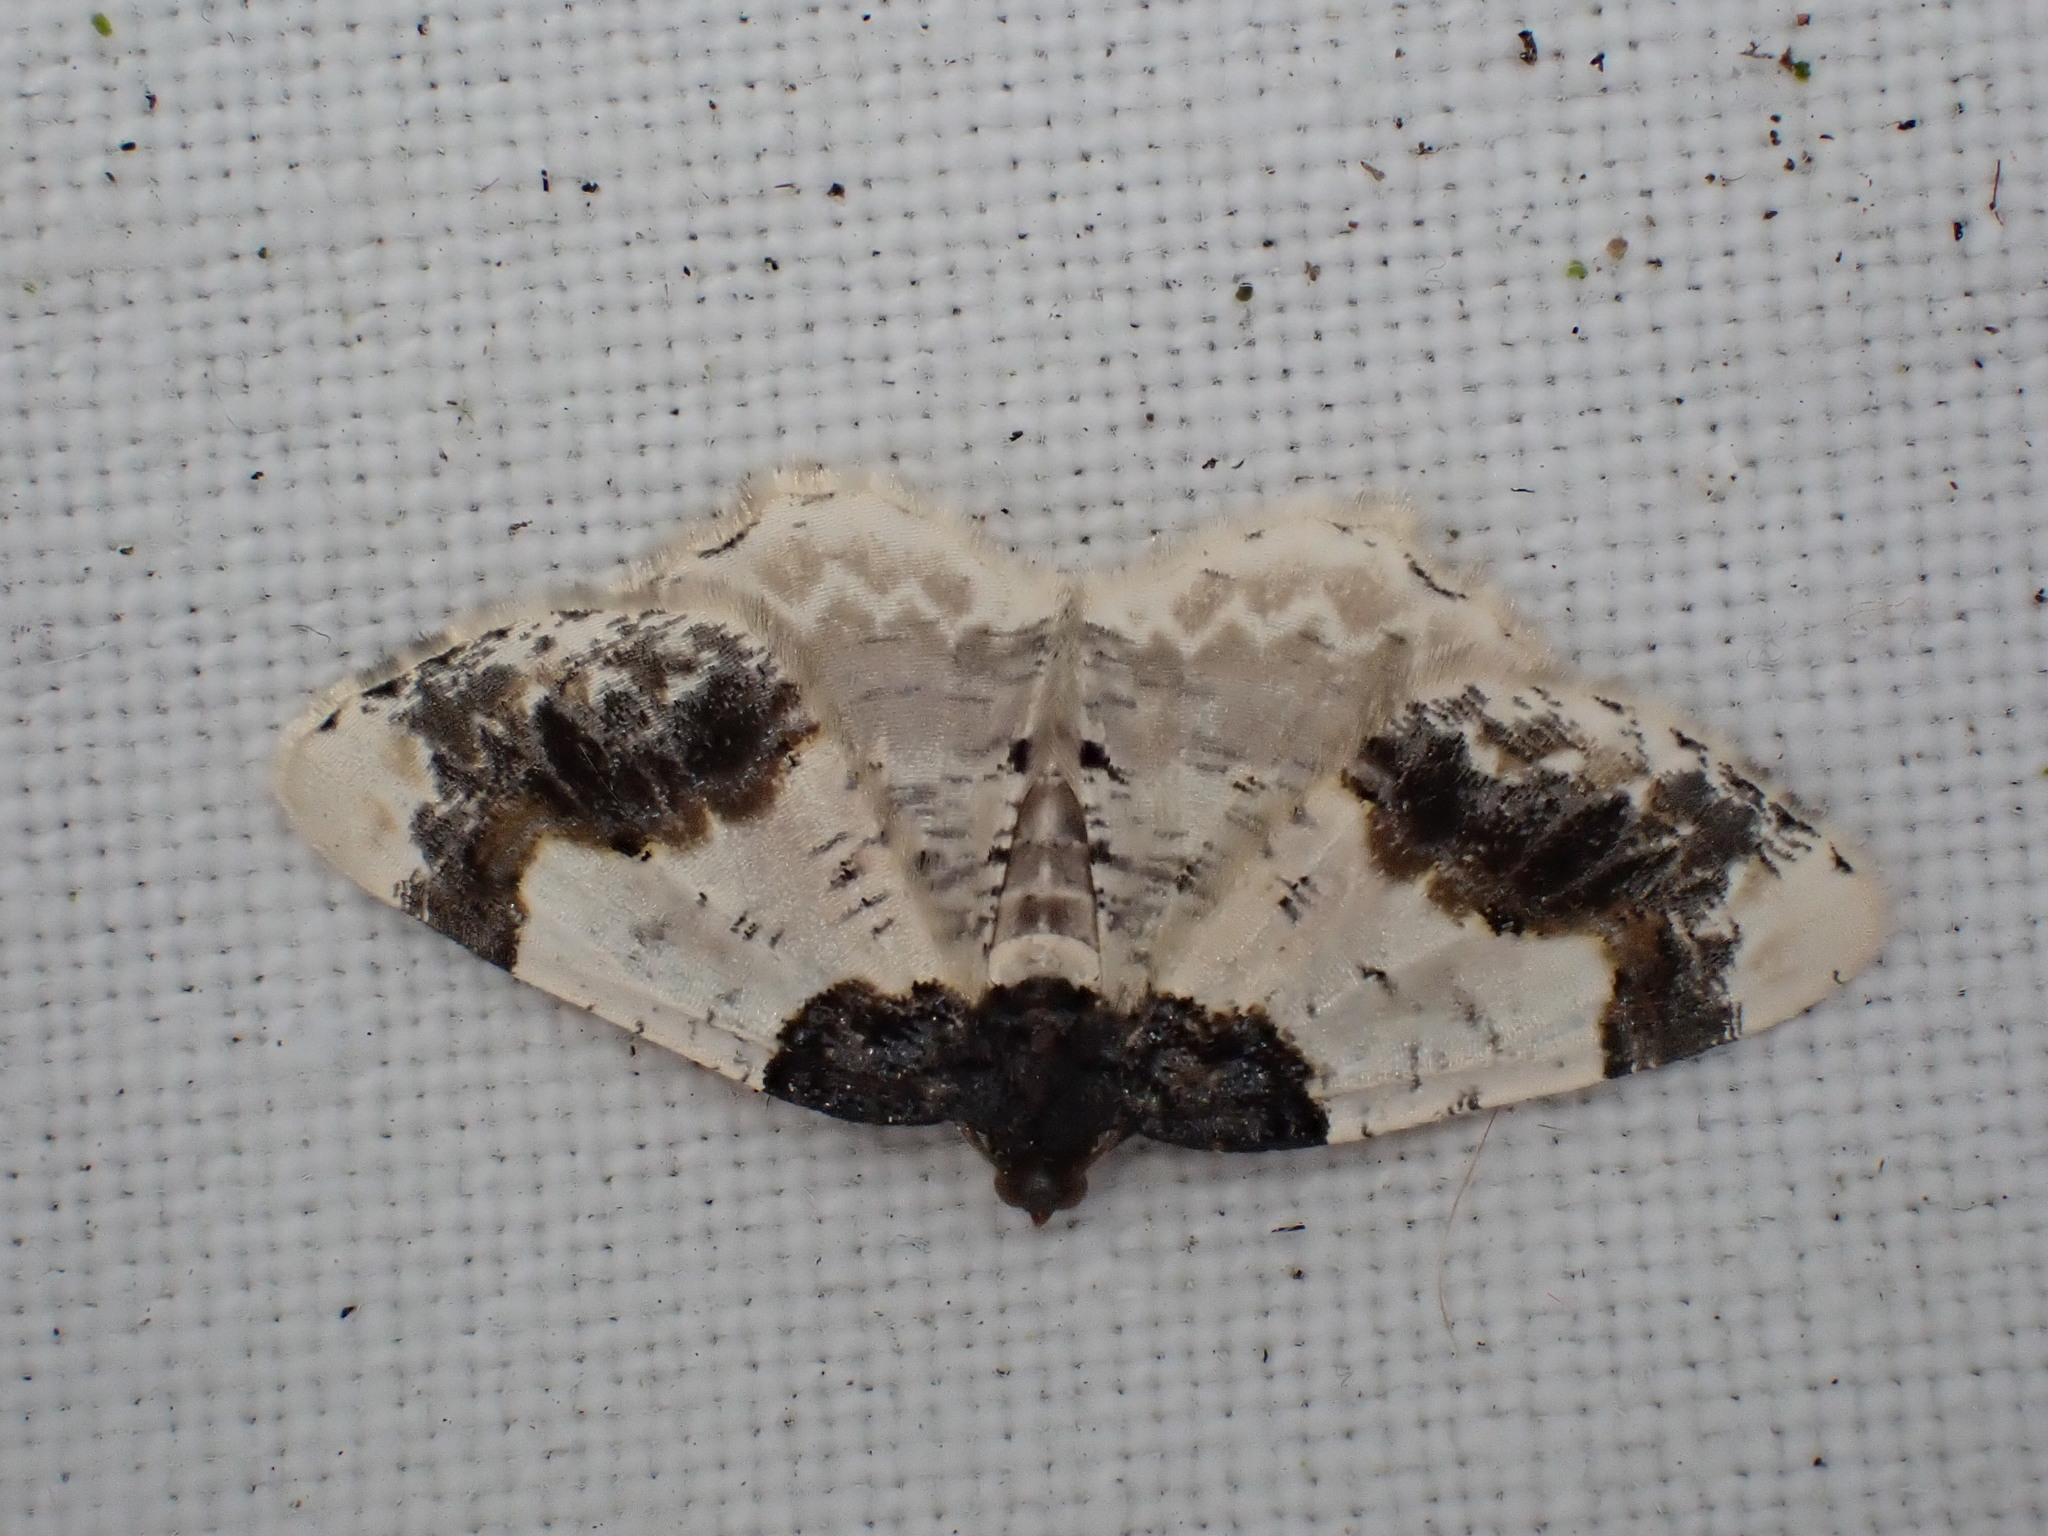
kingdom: Animalia
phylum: Arthropoda
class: Insecta
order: Lepidoptera
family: Geometridae
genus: Ligdia
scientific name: Ligdia adustata
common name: Scorched carpet
